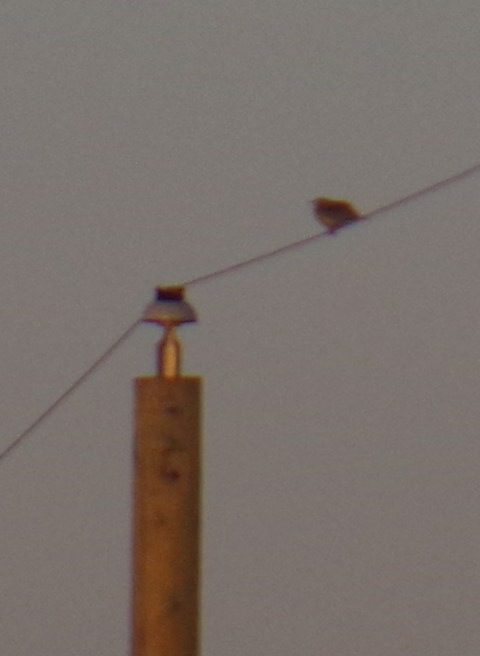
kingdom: Animalia
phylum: Chordata
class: Aves
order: Passeriformes
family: Icteridae
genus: Sturnella
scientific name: Sturnella neglecta
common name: Western meadowlark
